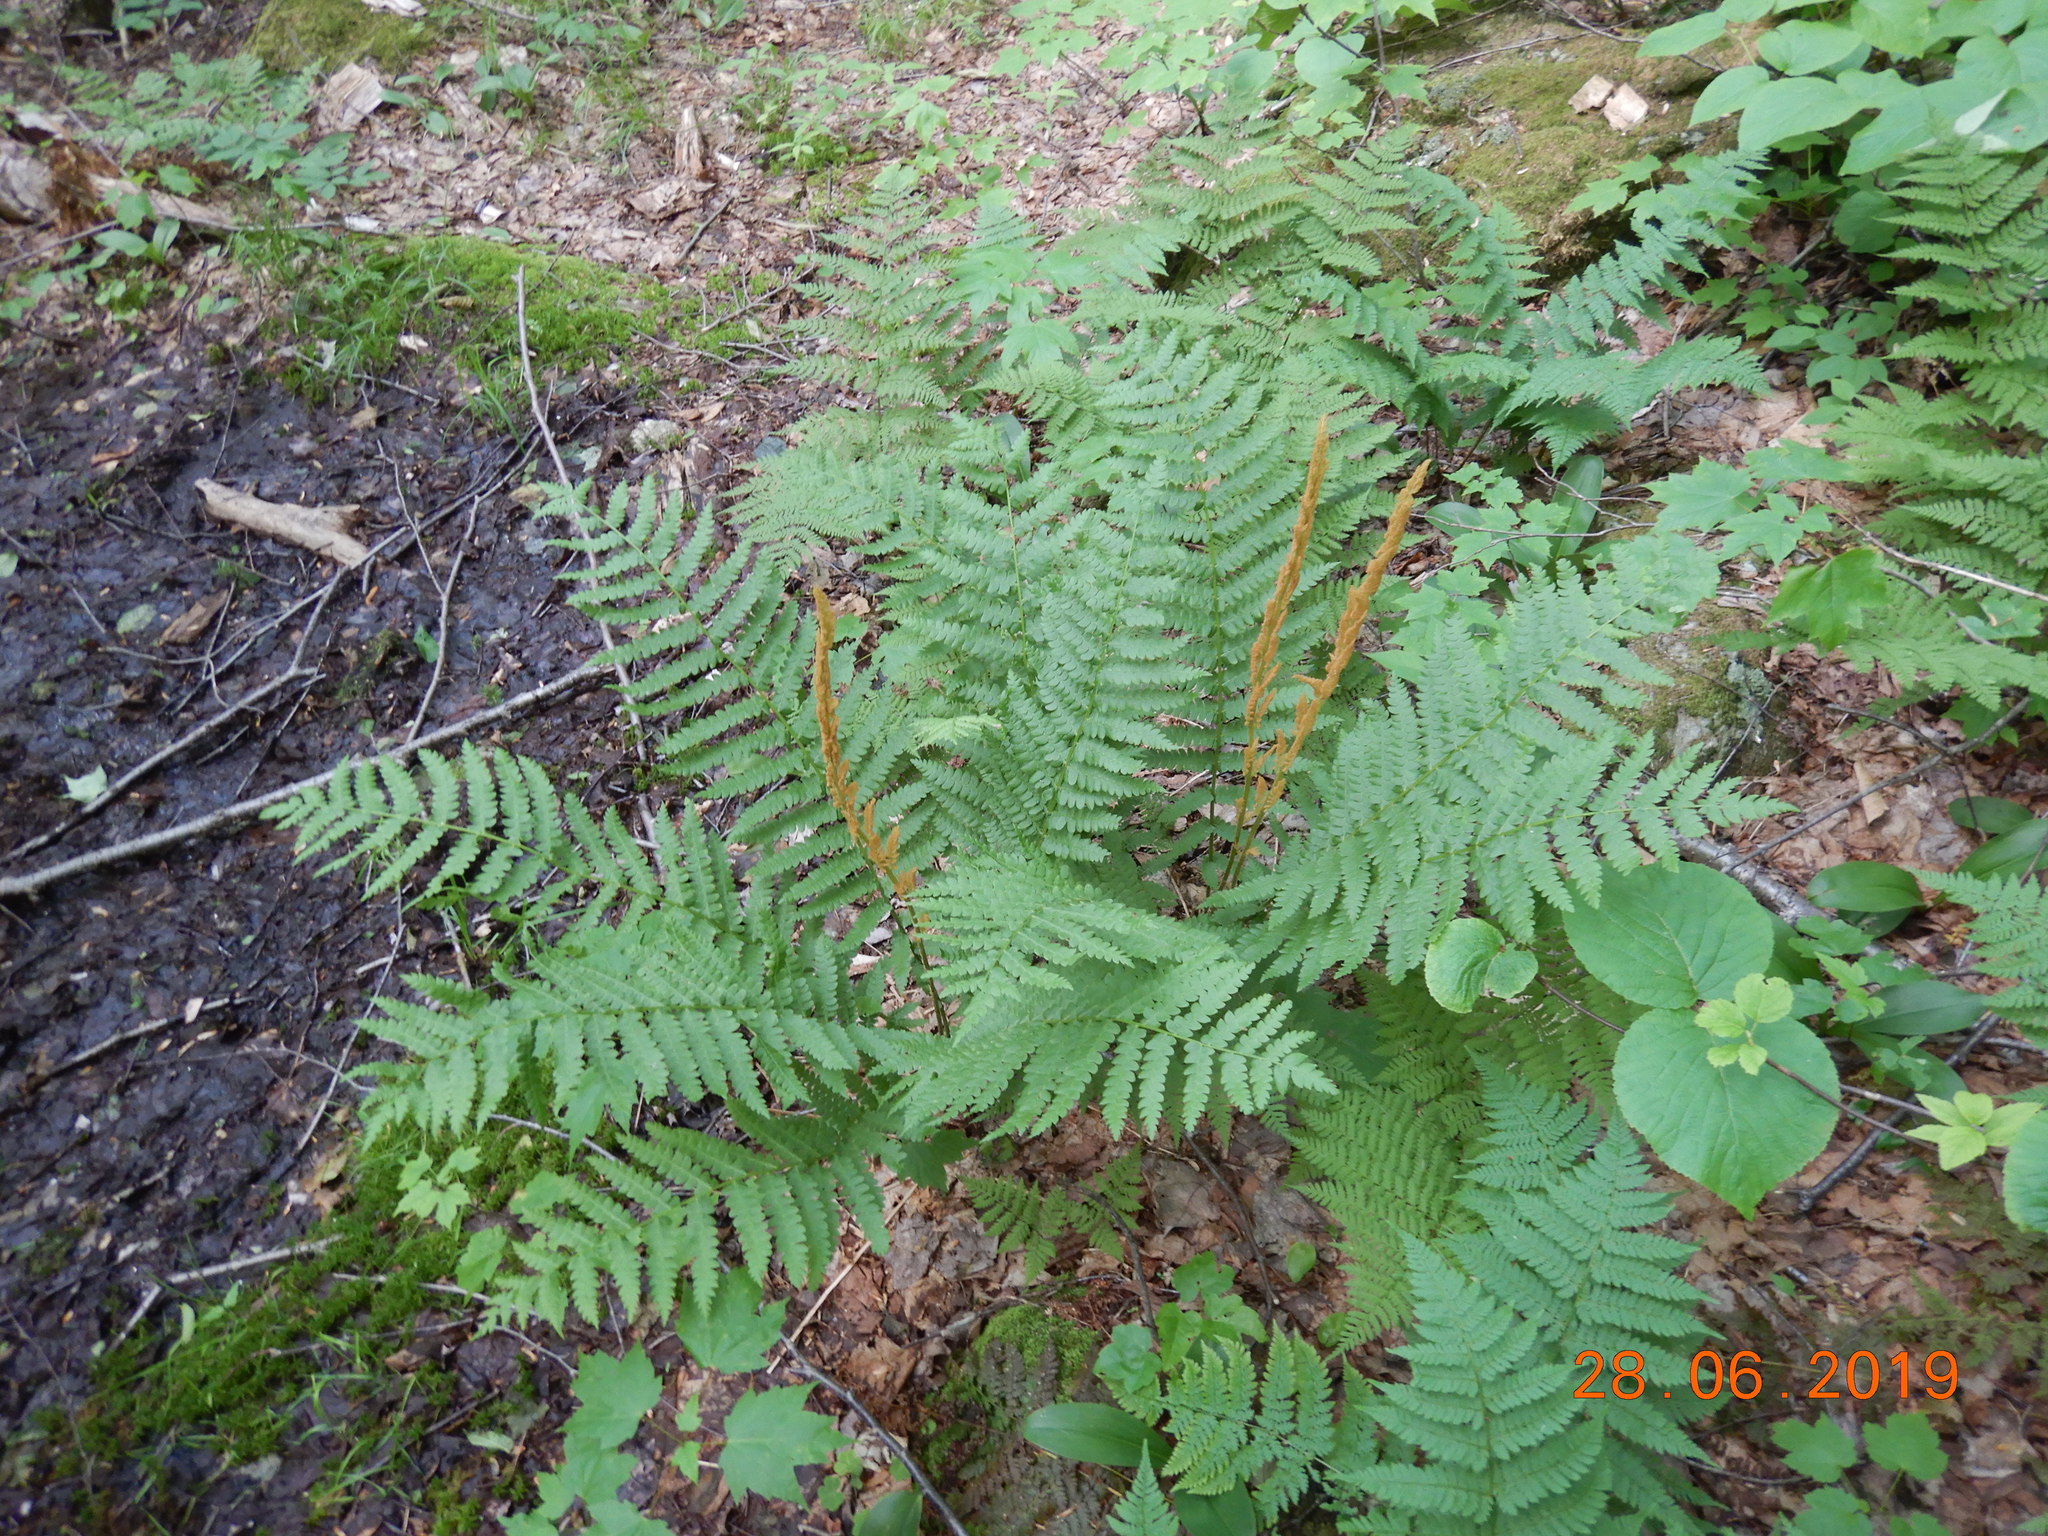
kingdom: Plantae
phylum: Tracheophyta
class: Polypodiopsida
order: Osmundales
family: Osmundaceae
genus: Osmundastrum
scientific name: Osmundastrum cinnamomeum
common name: Cinnamon fern
